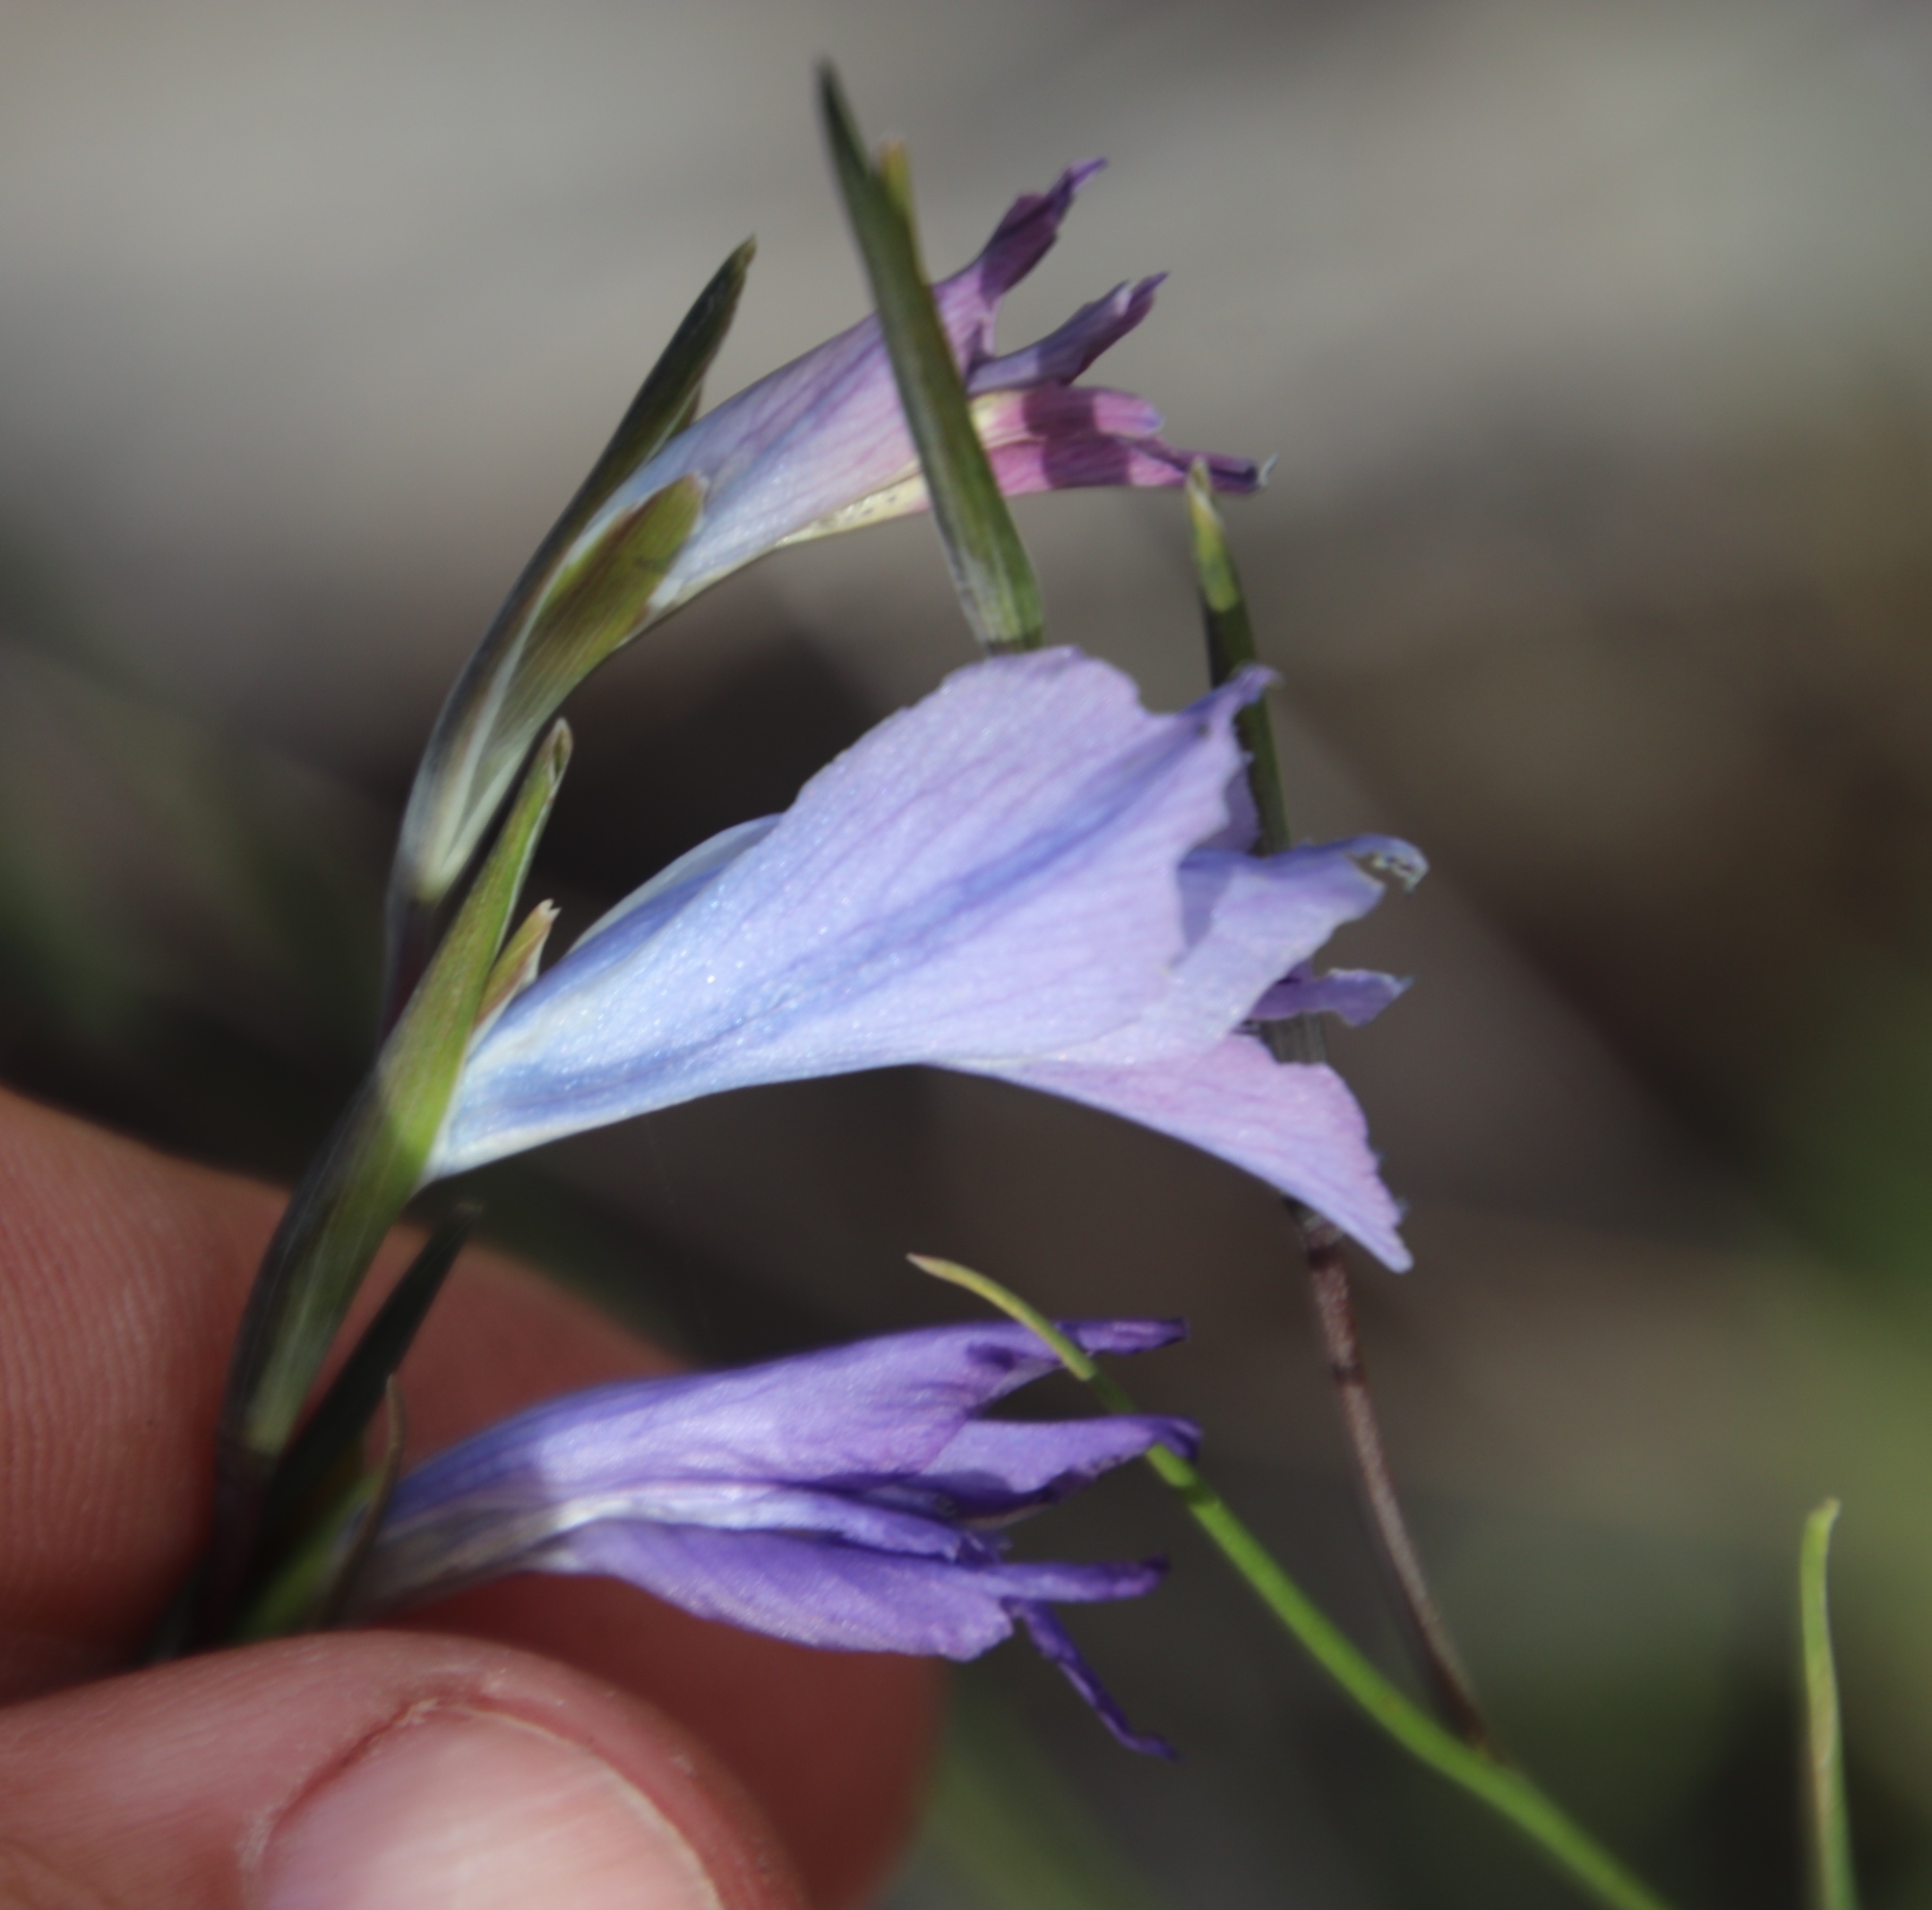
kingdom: Plantae
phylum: Tracheophyta
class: Liliopsida
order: Asparagales
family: Iridaceae
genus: Gladiolus
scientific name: Gladiolus gracilis
